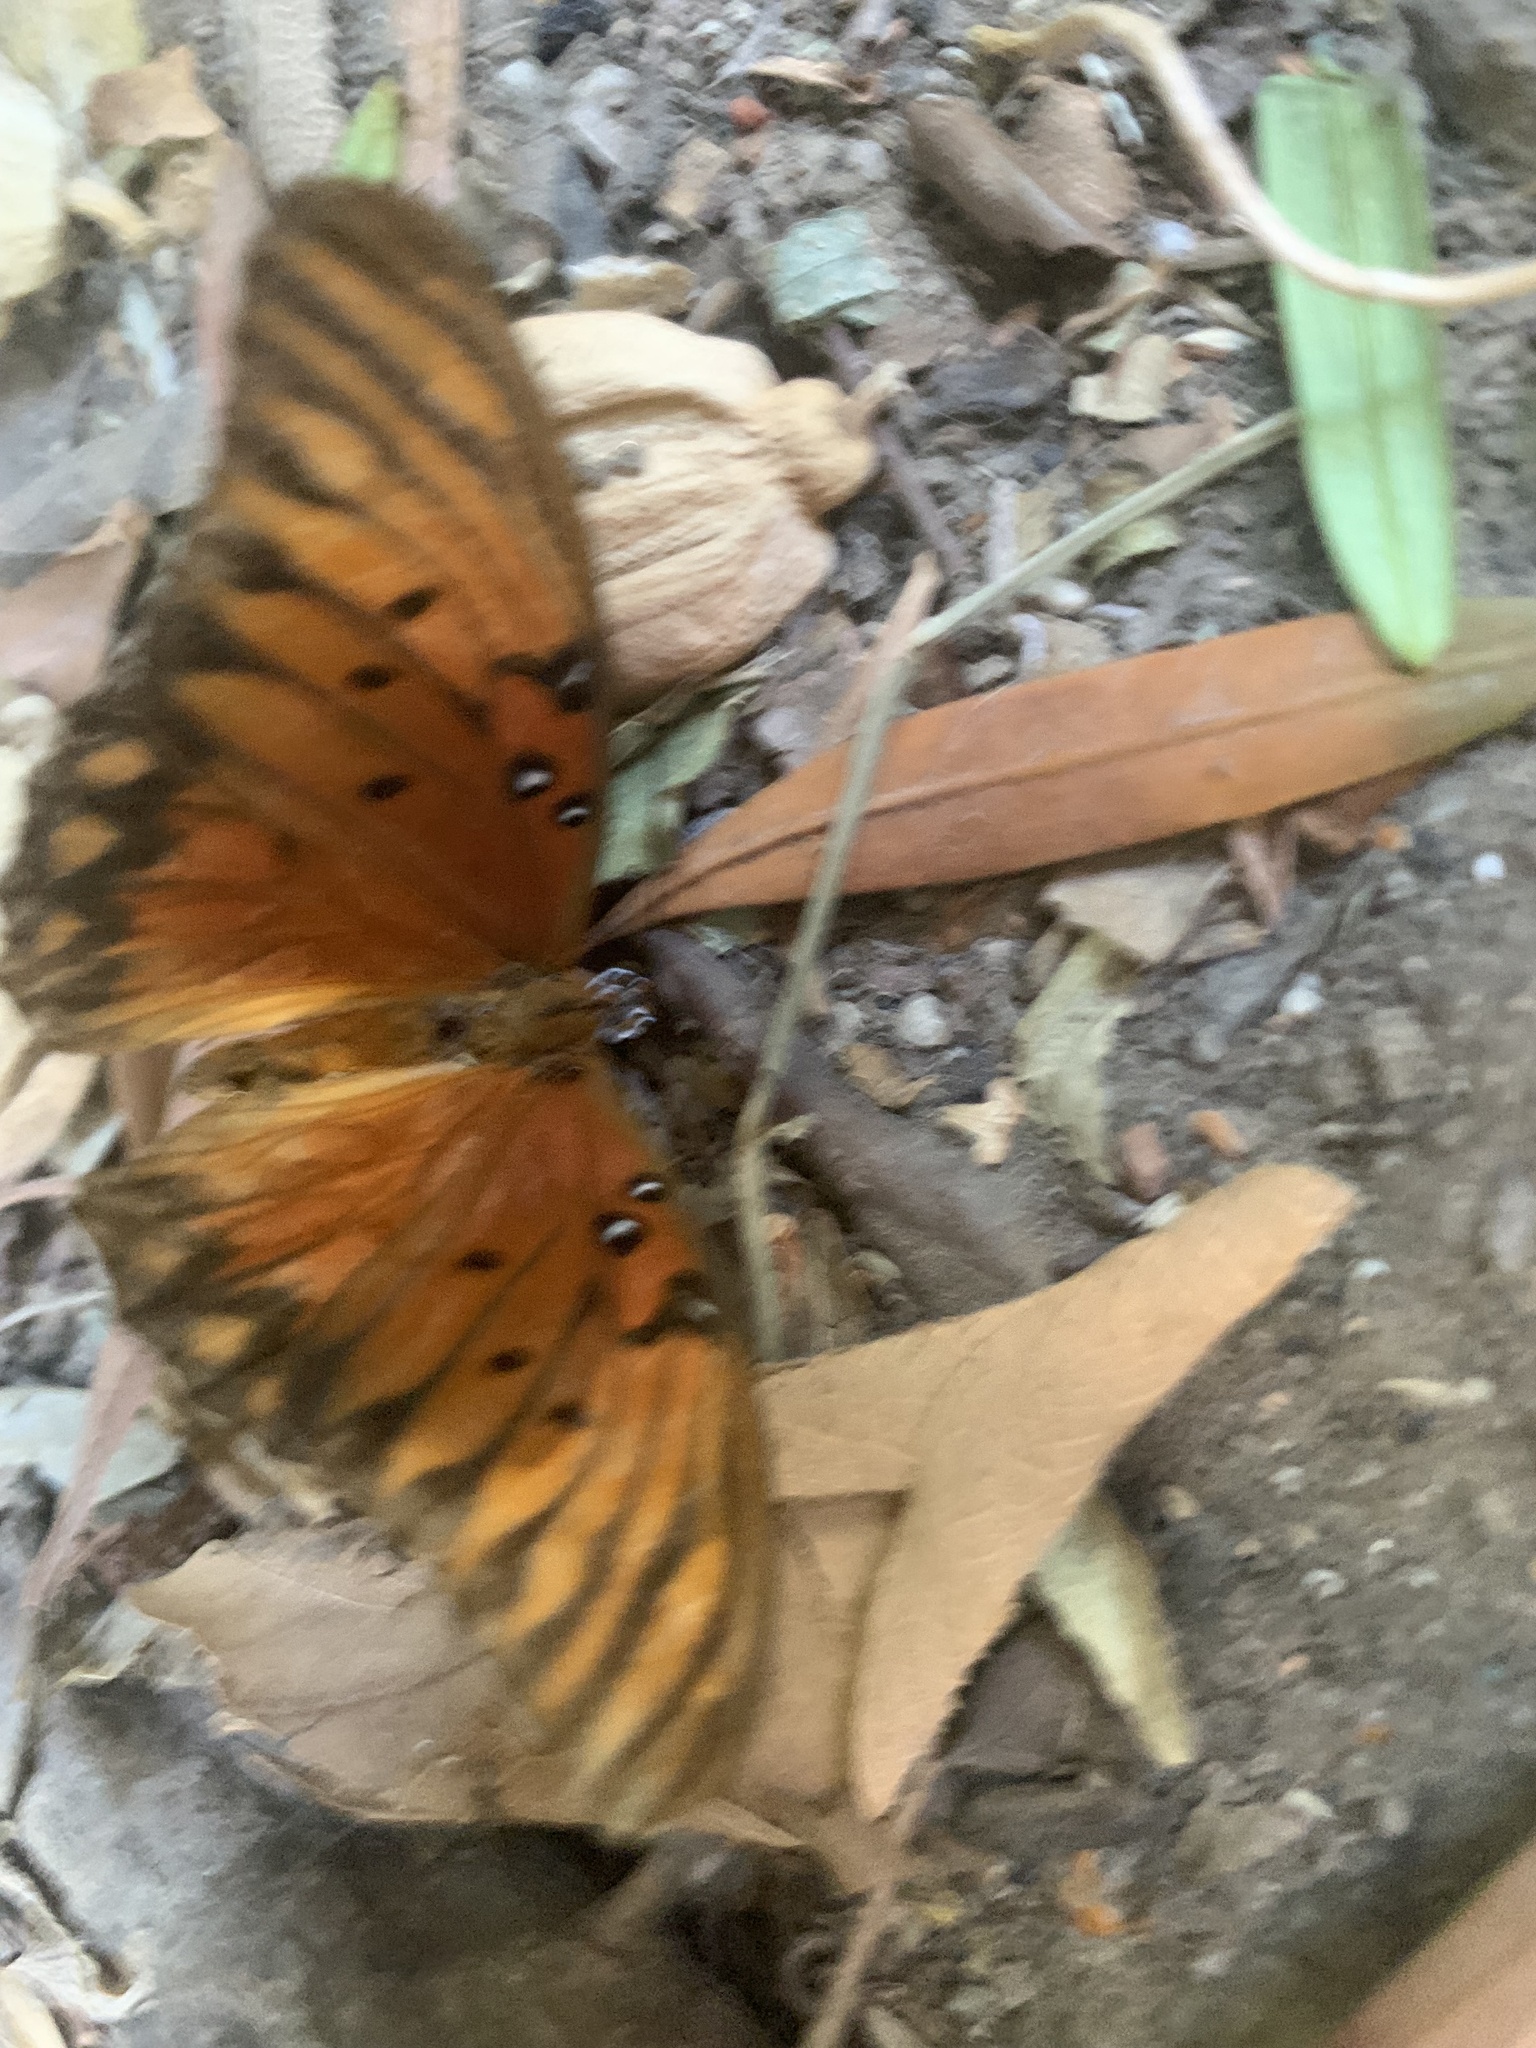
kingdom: Animalia
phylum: Arthropoda
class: Insecta
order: Lepidoptera
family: Nymphalidae
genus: Dione
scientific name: Dione vanillae
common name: Gulf fritillary
